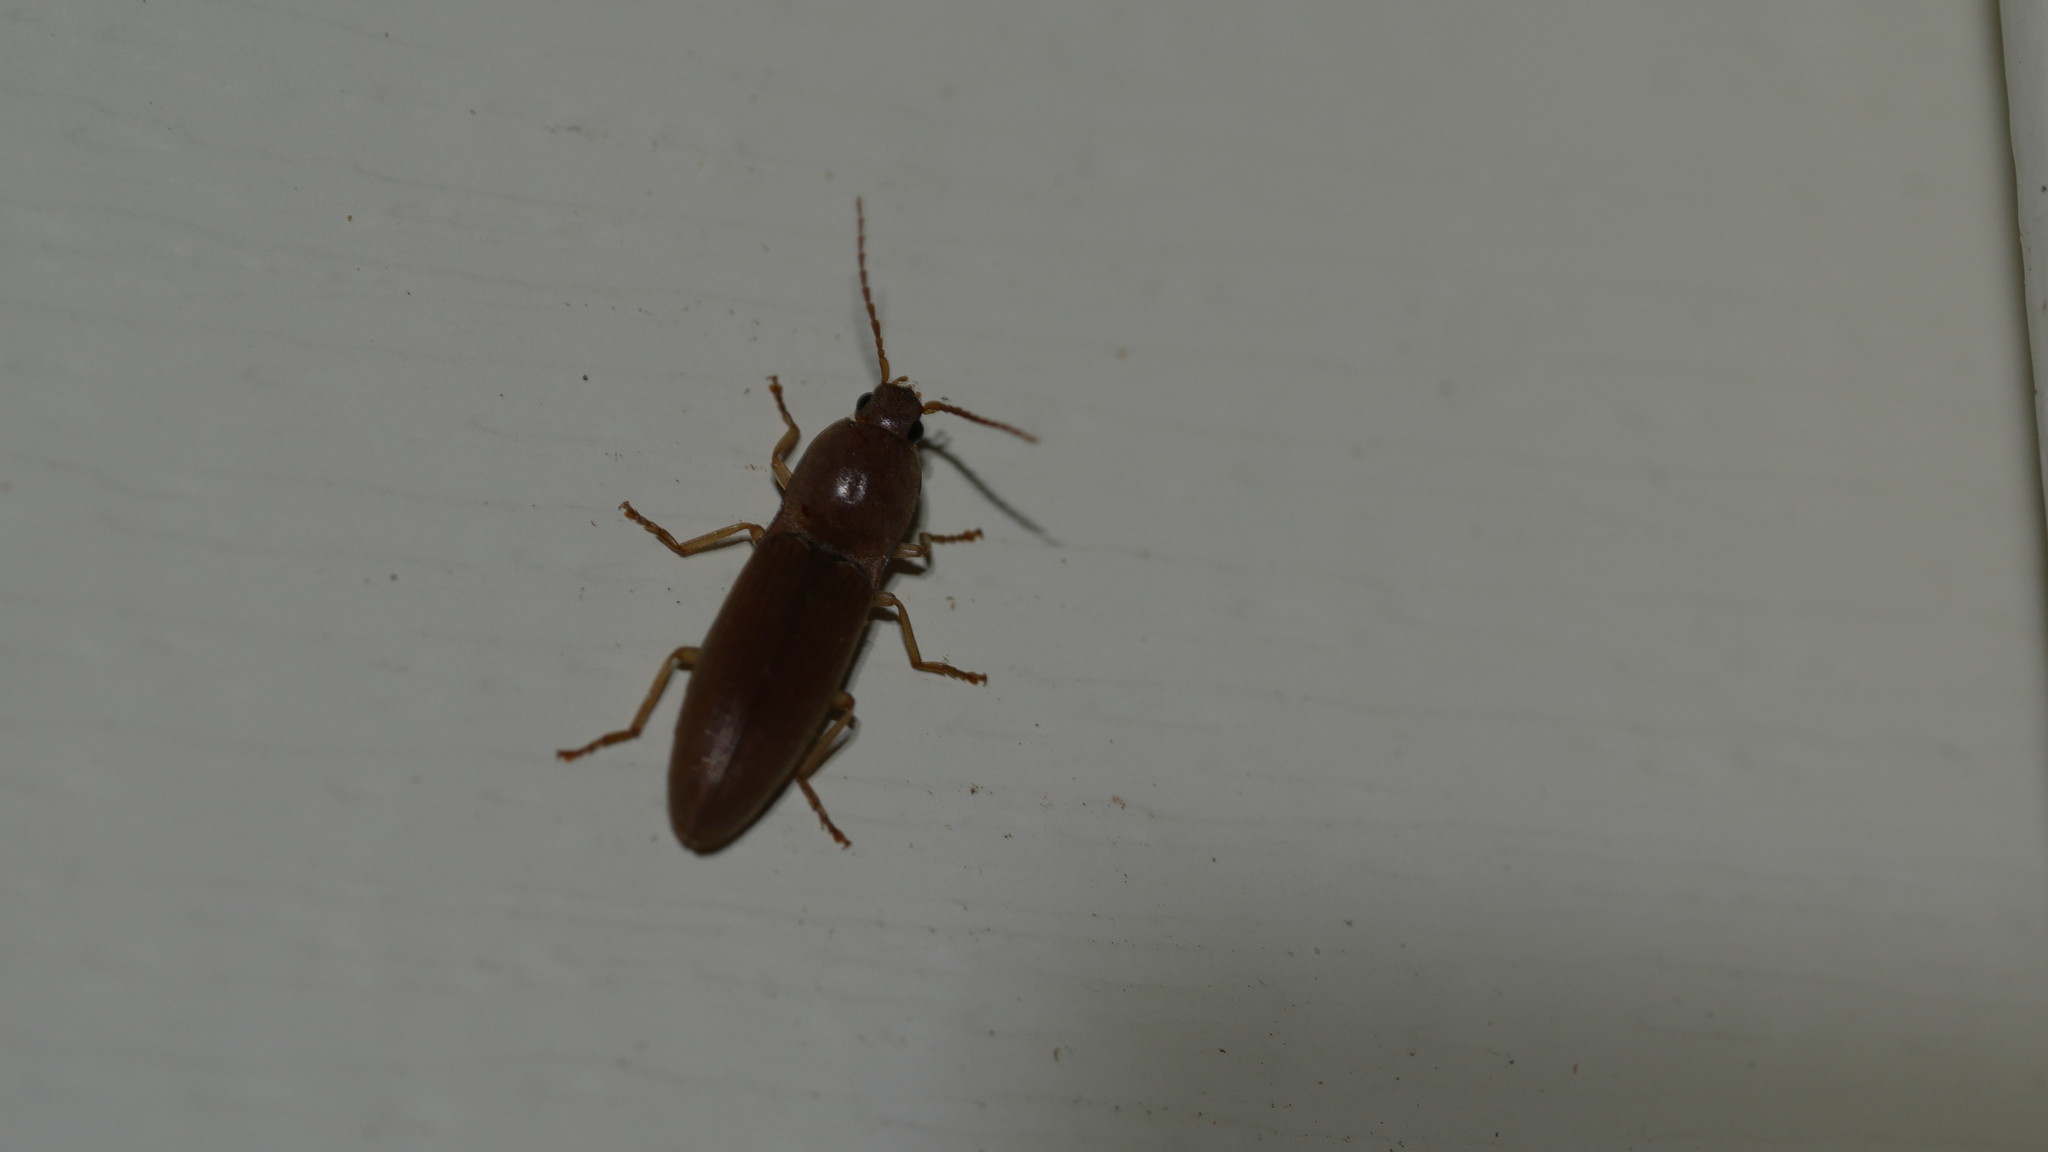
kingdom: Animalia
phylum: Arthropoda
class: Insecta
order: Coleoptera
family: Elateridae
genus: Monocrepidius
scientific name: Monocrepidius lividus
